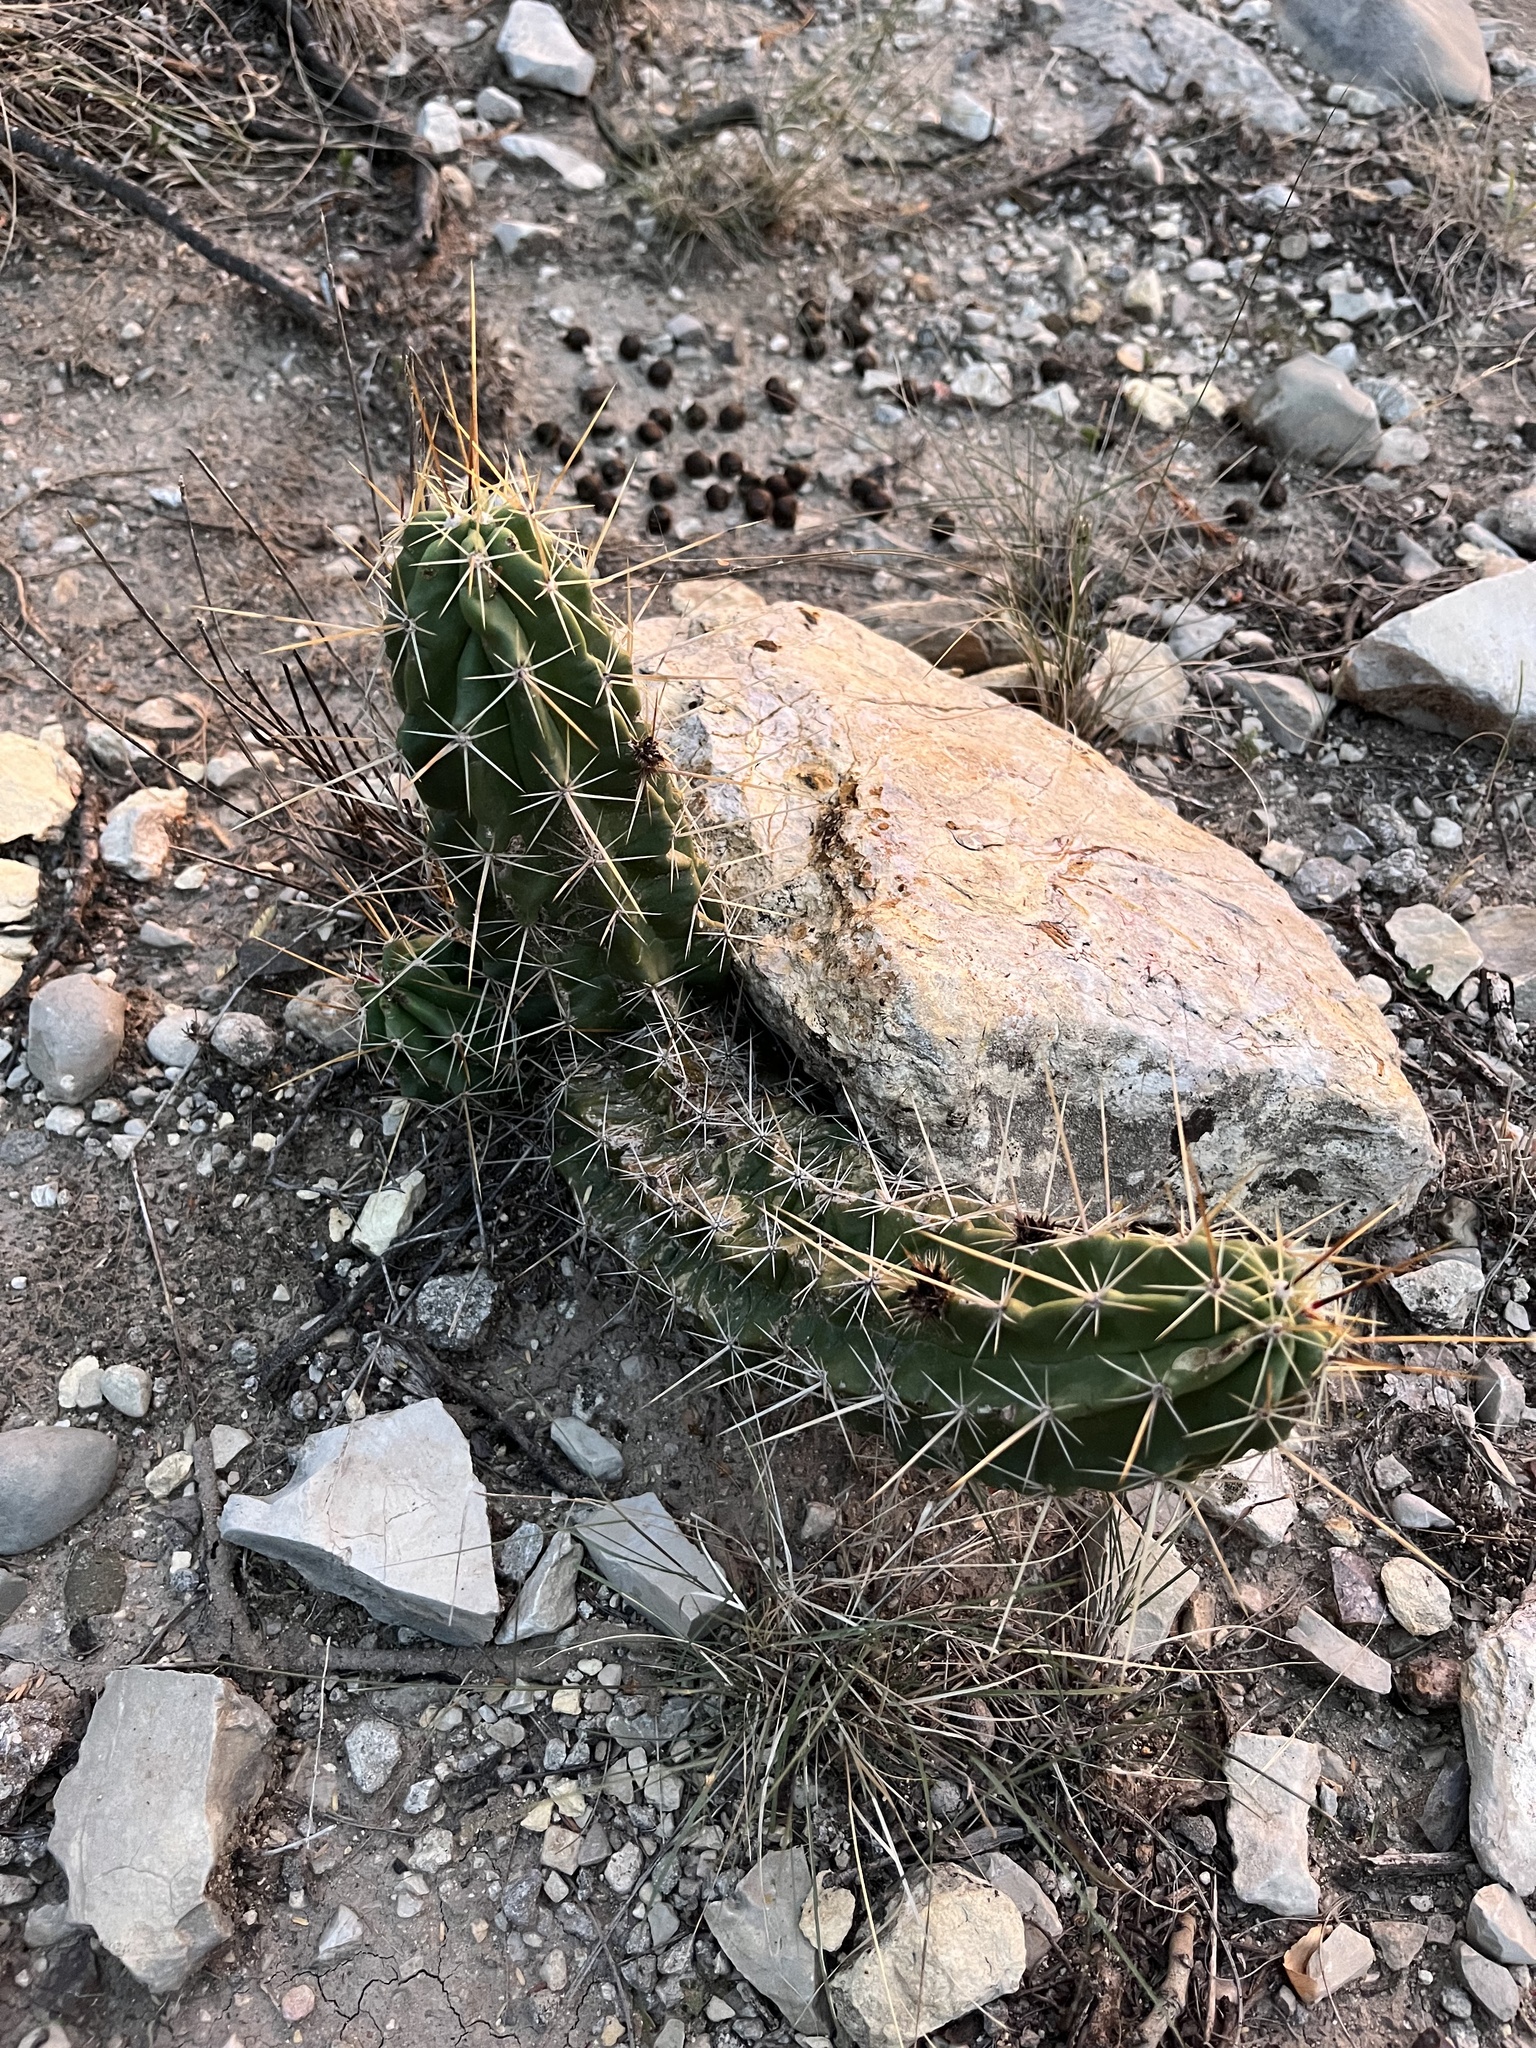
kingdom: Plantae
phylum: Tracheophyta
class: Magnoliopsida
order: Caryophyllales
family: Cactaceae
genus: Echinocereus
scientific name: Echinocereus enneacanthus
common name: Pitaya
